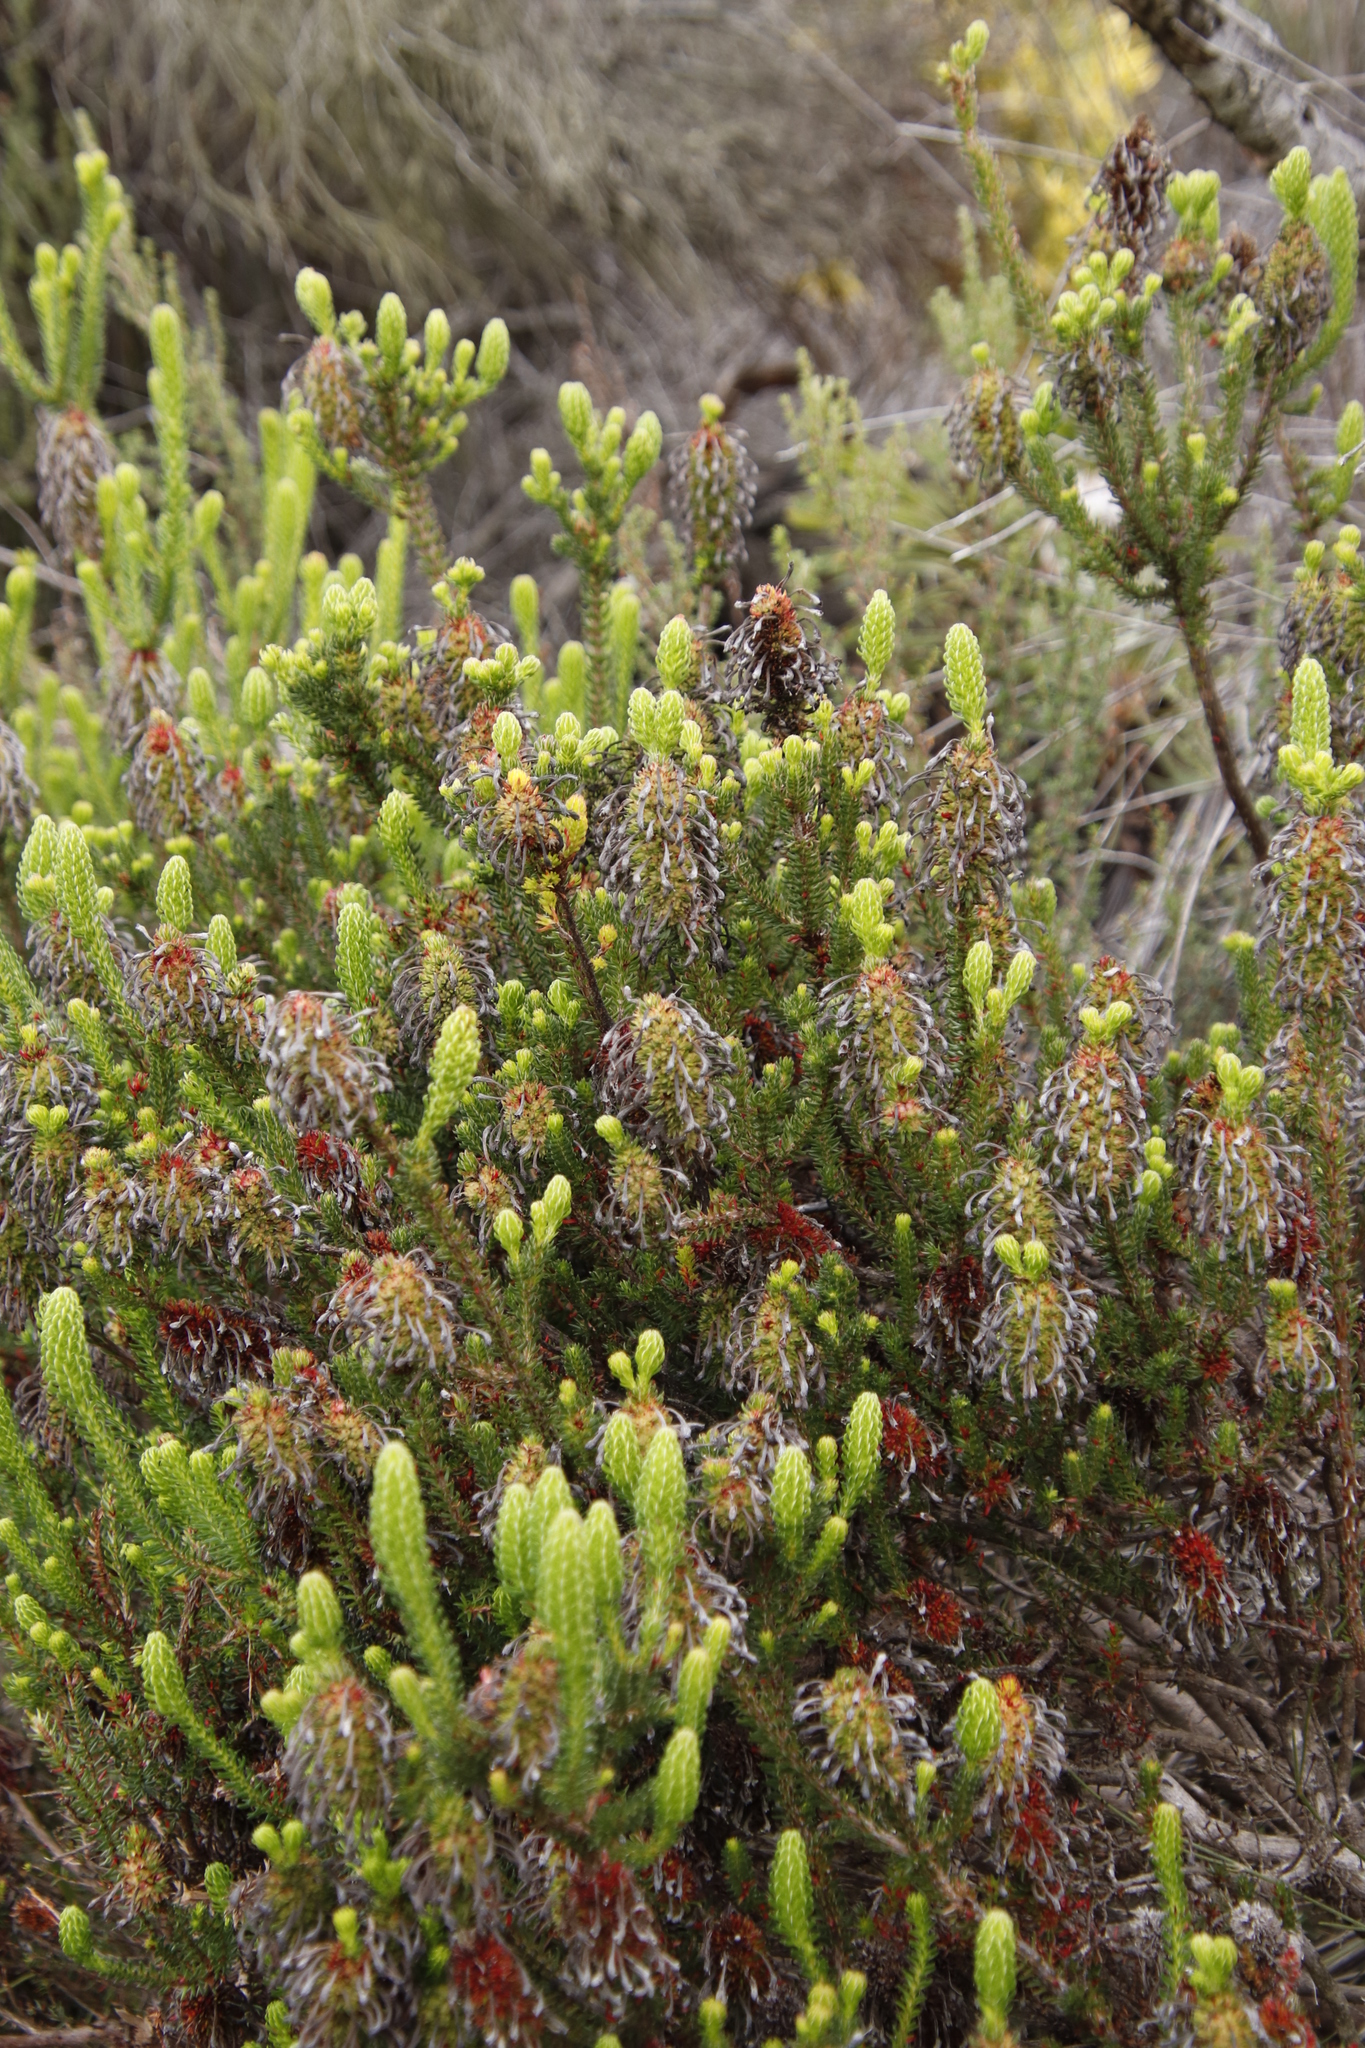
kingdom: Plantae
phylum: Tracheophyta
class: Magnoliopsida
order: Ericales
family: Ericaceae
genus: Erica
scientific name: Erica sessiliflora
